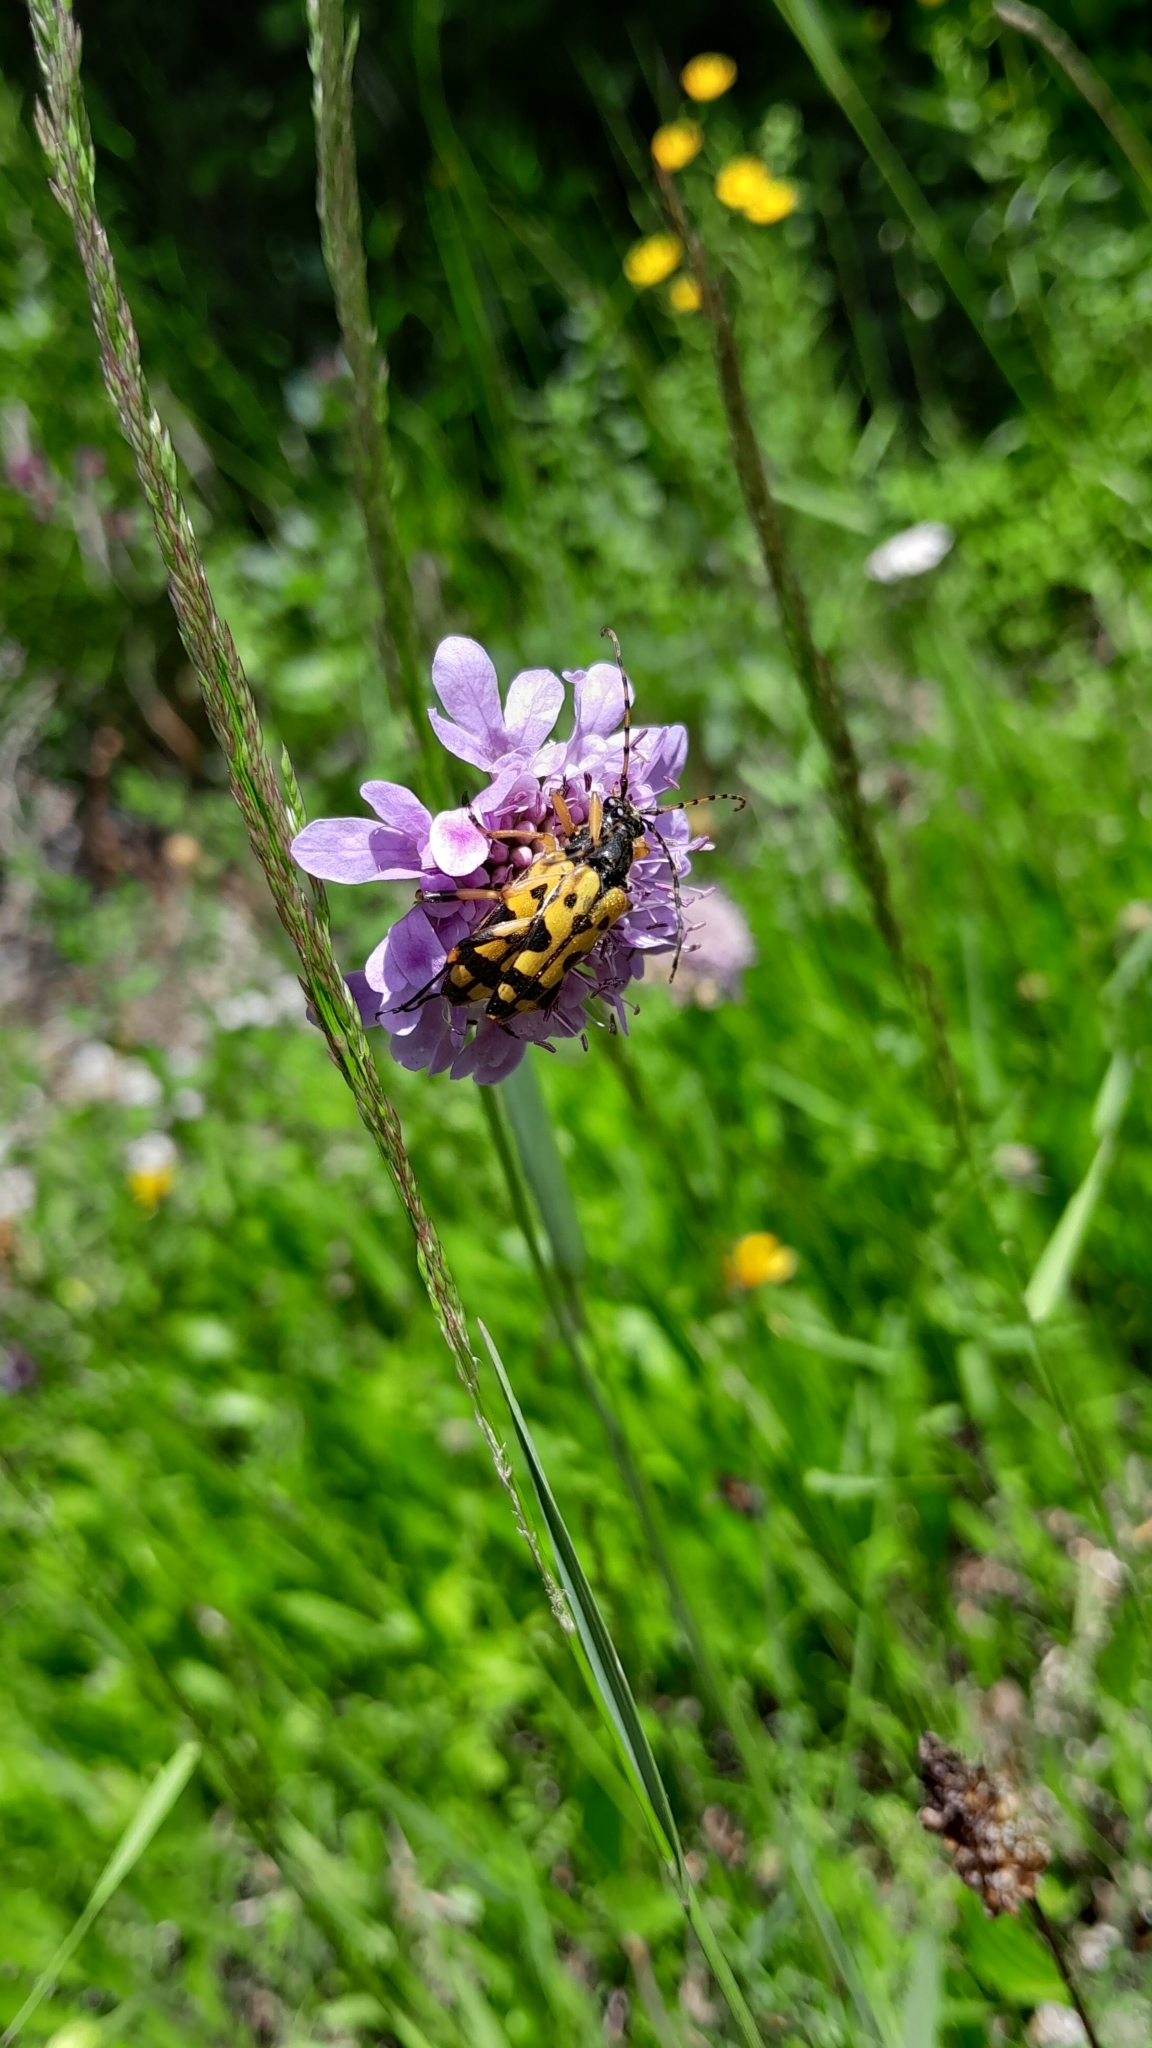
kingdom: Animalia
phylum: Arthropoda
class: Insecta
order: Coleoptera
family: Cerambycidae
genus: Rutpela
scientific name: Rutpela maculata
